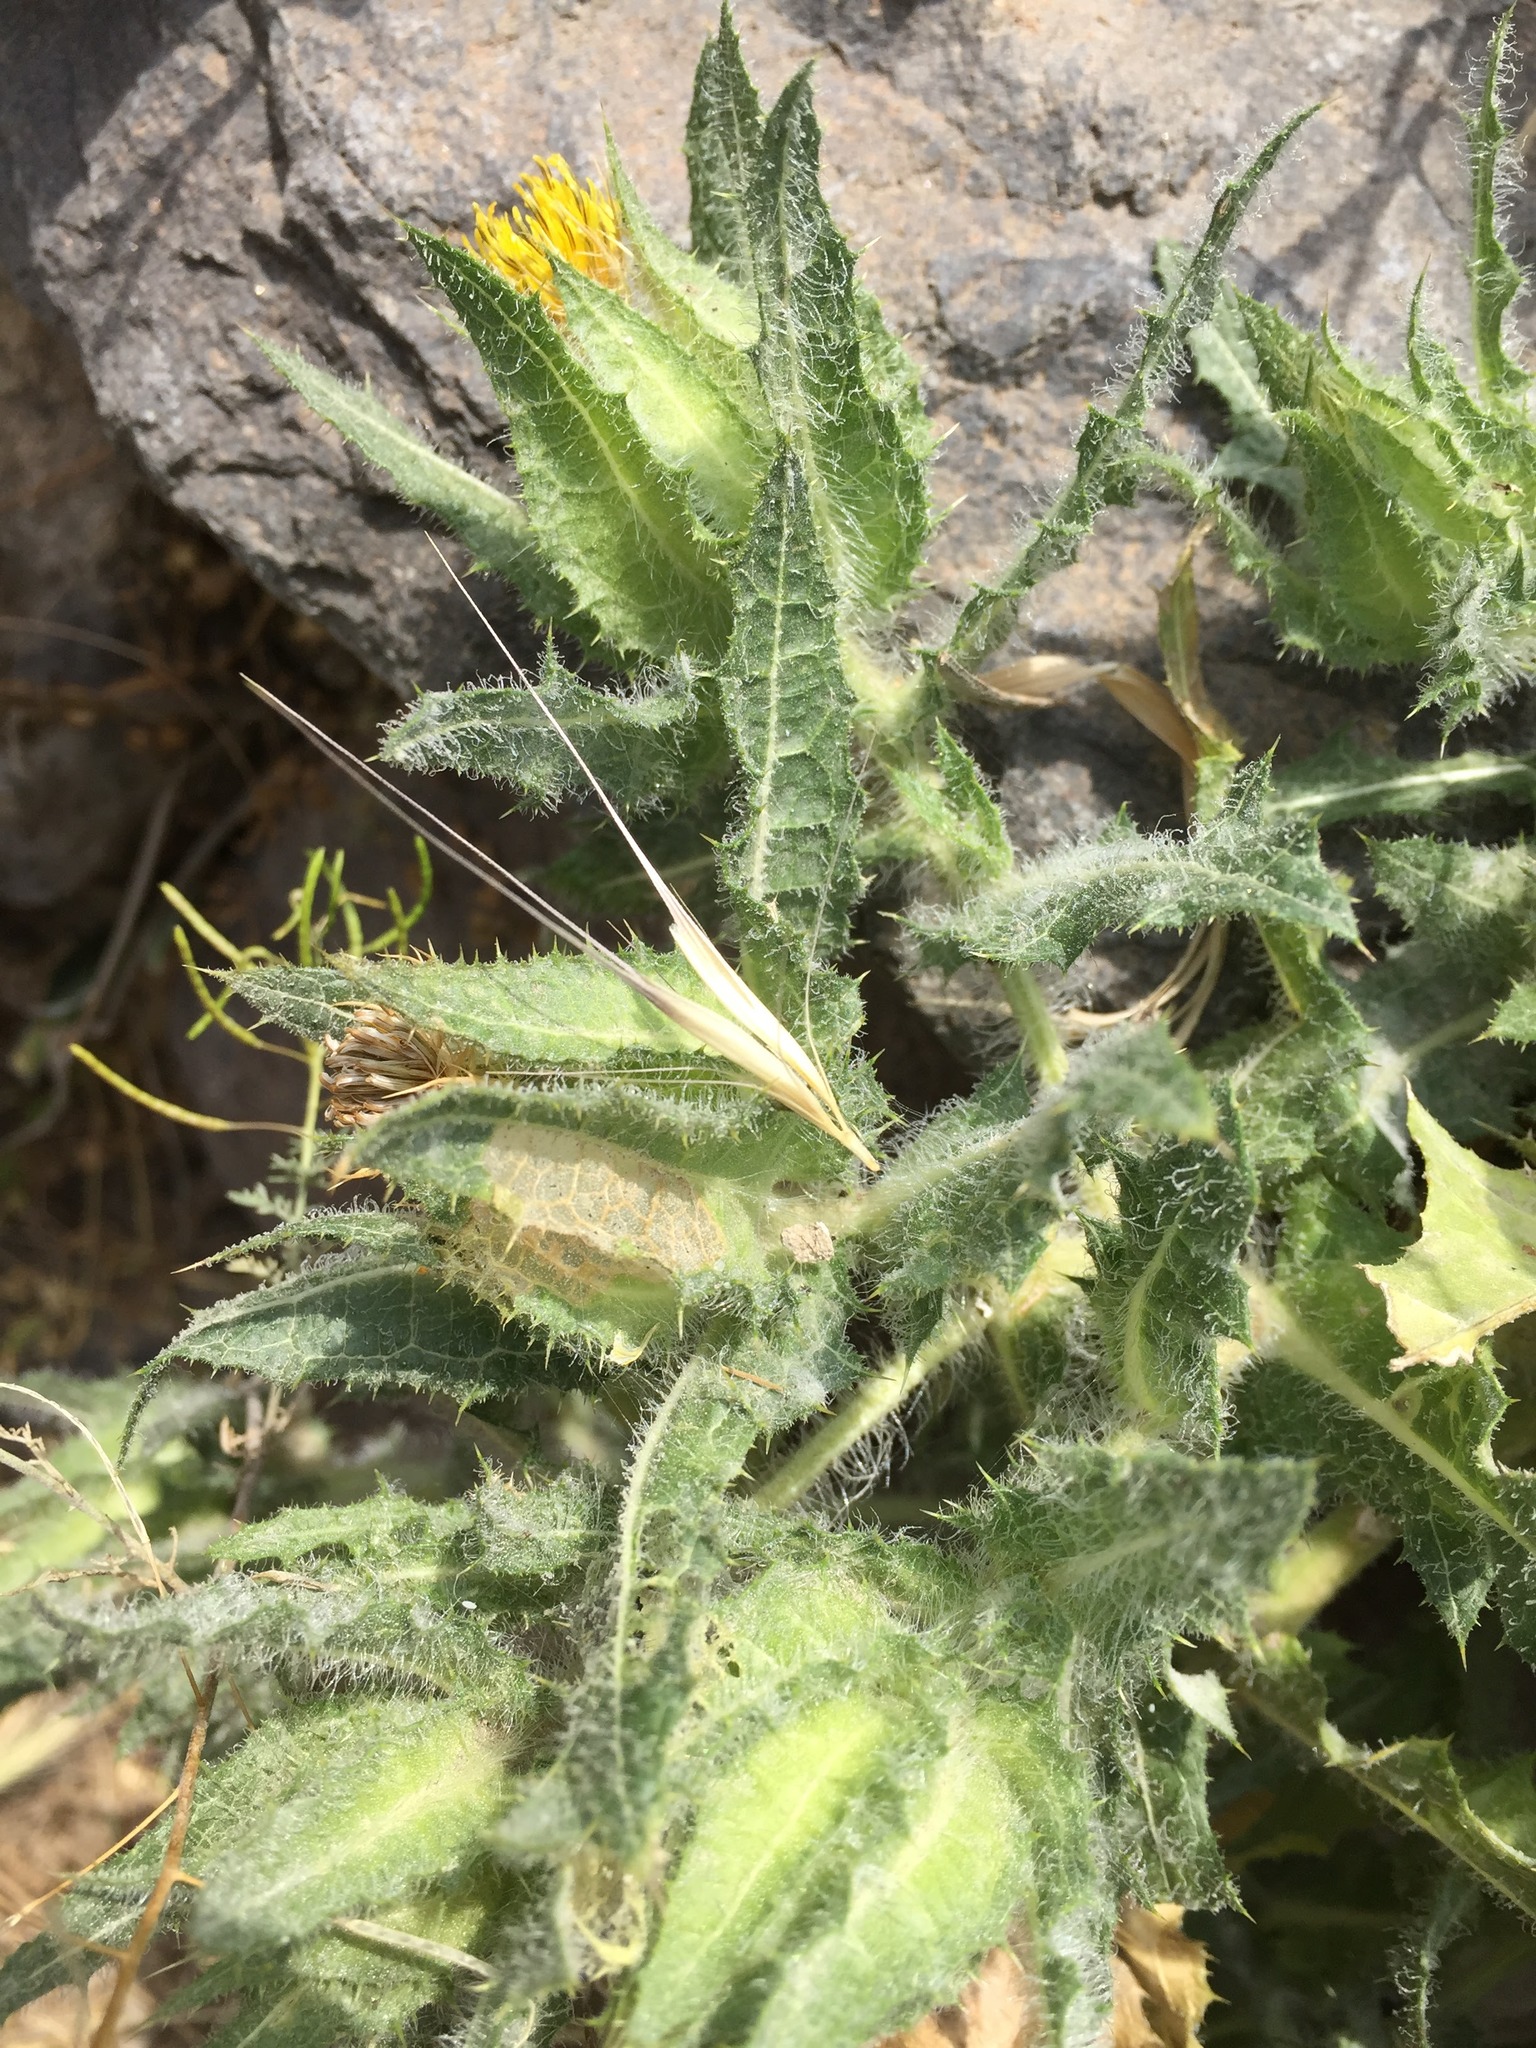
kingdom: Plantae
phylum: Tracheophyta
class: Magnoliopsida
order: Asterales
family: Asteraceae
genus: Centaurea
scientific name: Centaurea benedicta
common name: Blessed thistle
